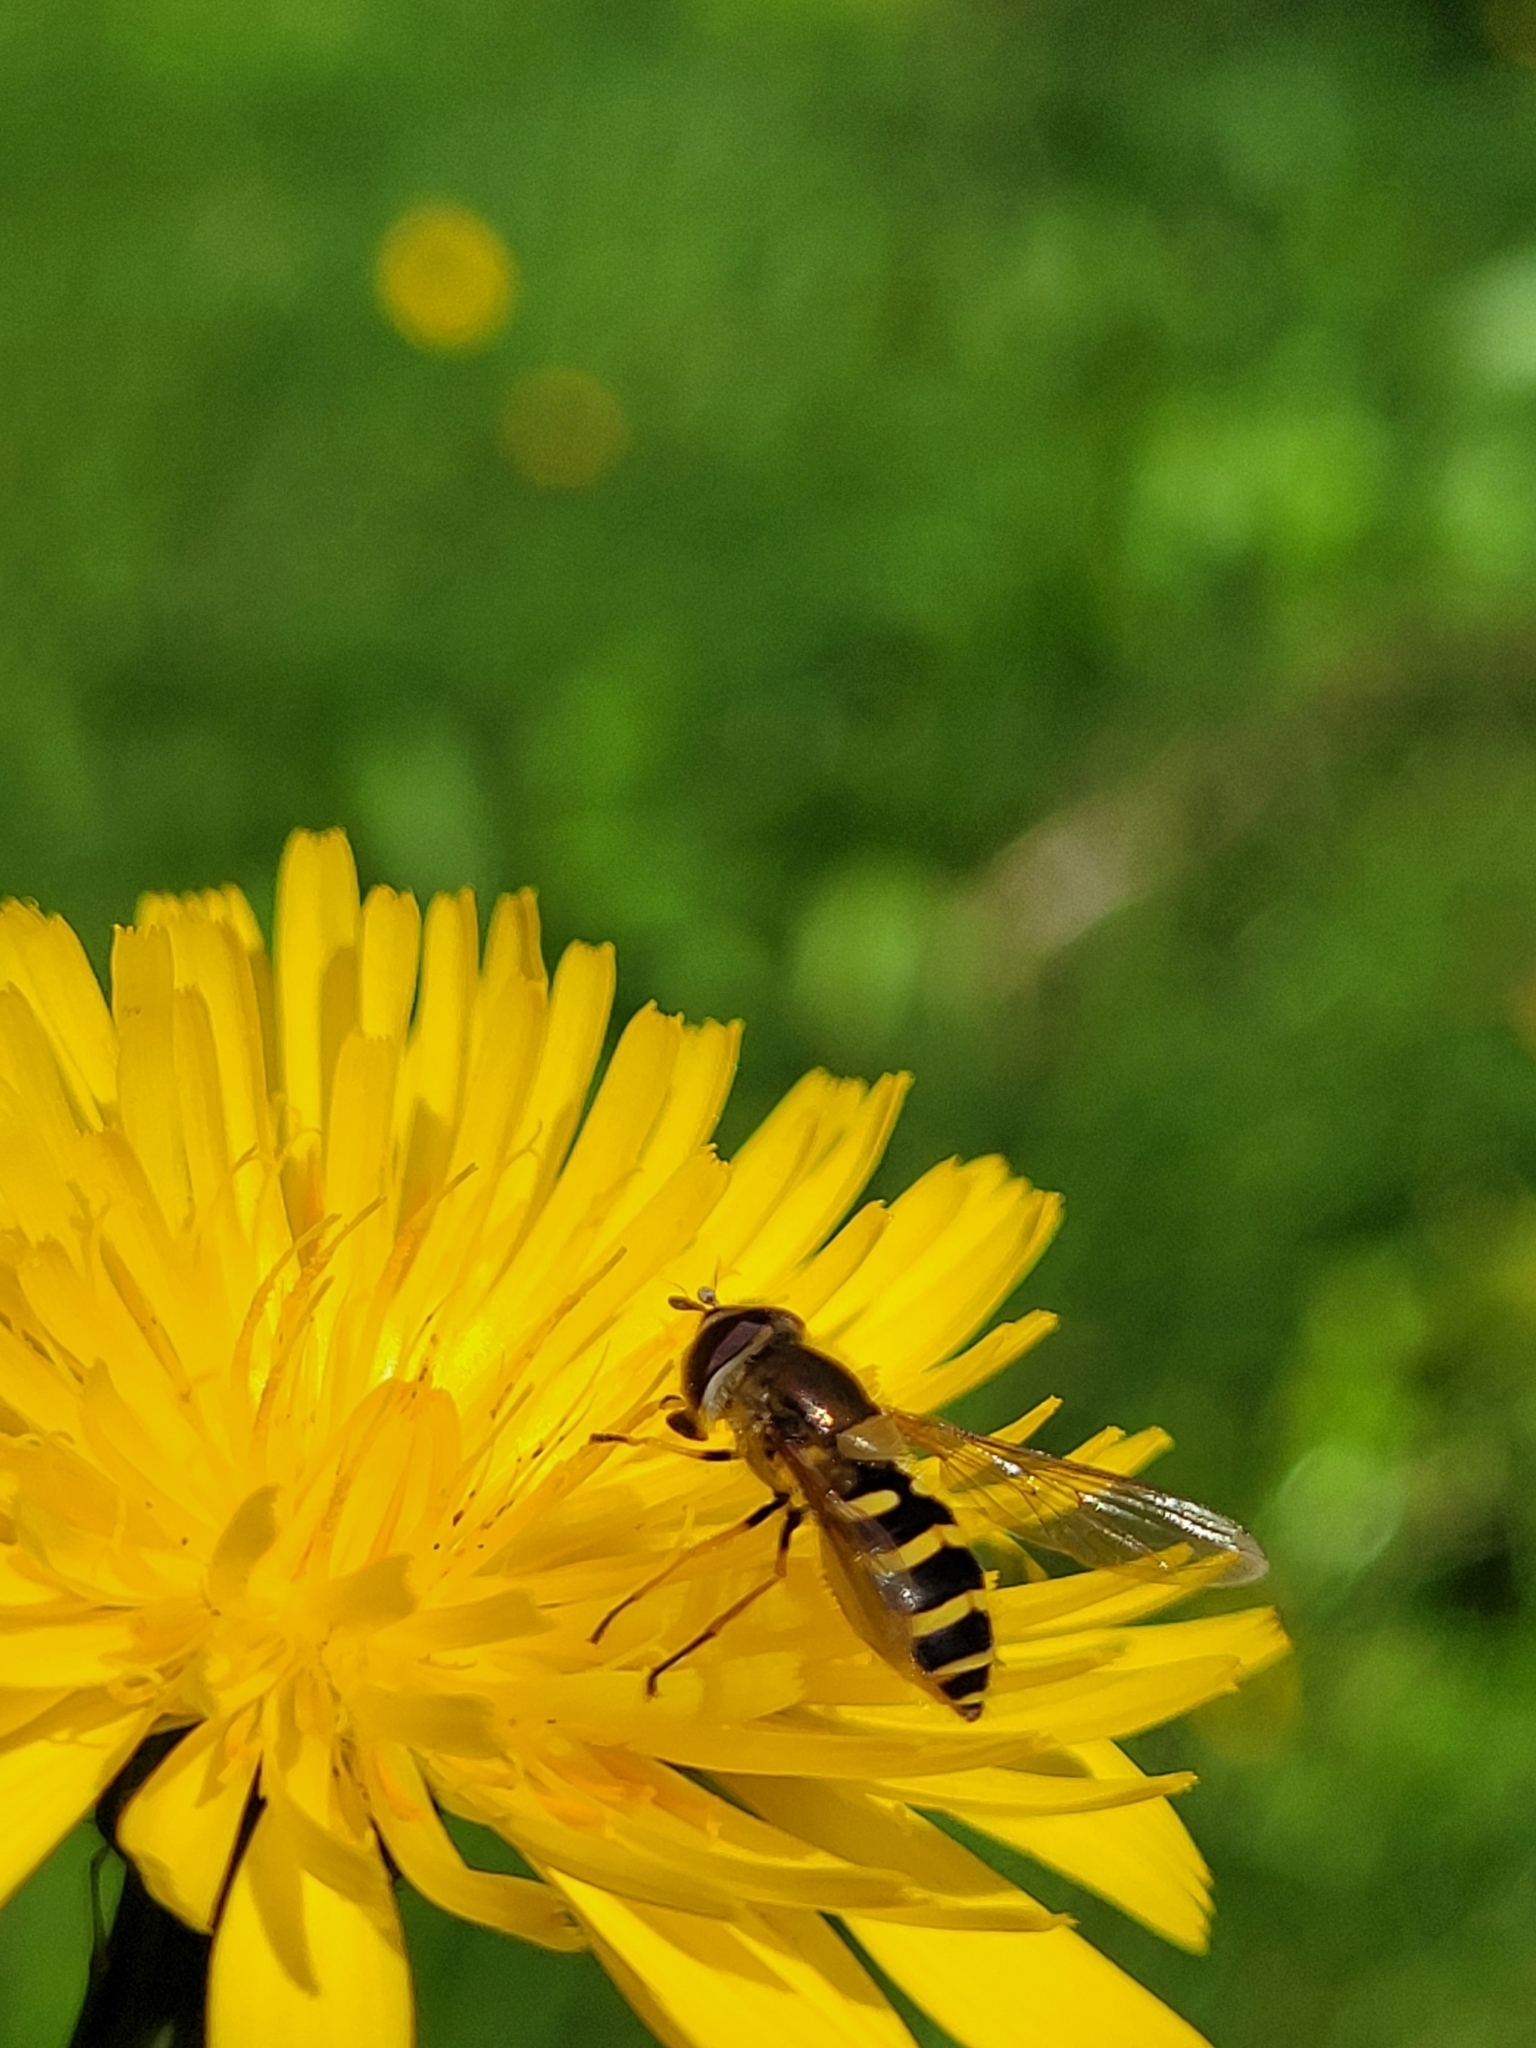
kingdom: Animalia
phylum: Arthropoda
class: Insecta
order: Diptera
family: Syrphidae
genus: Syrphus
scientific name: Syrphus
